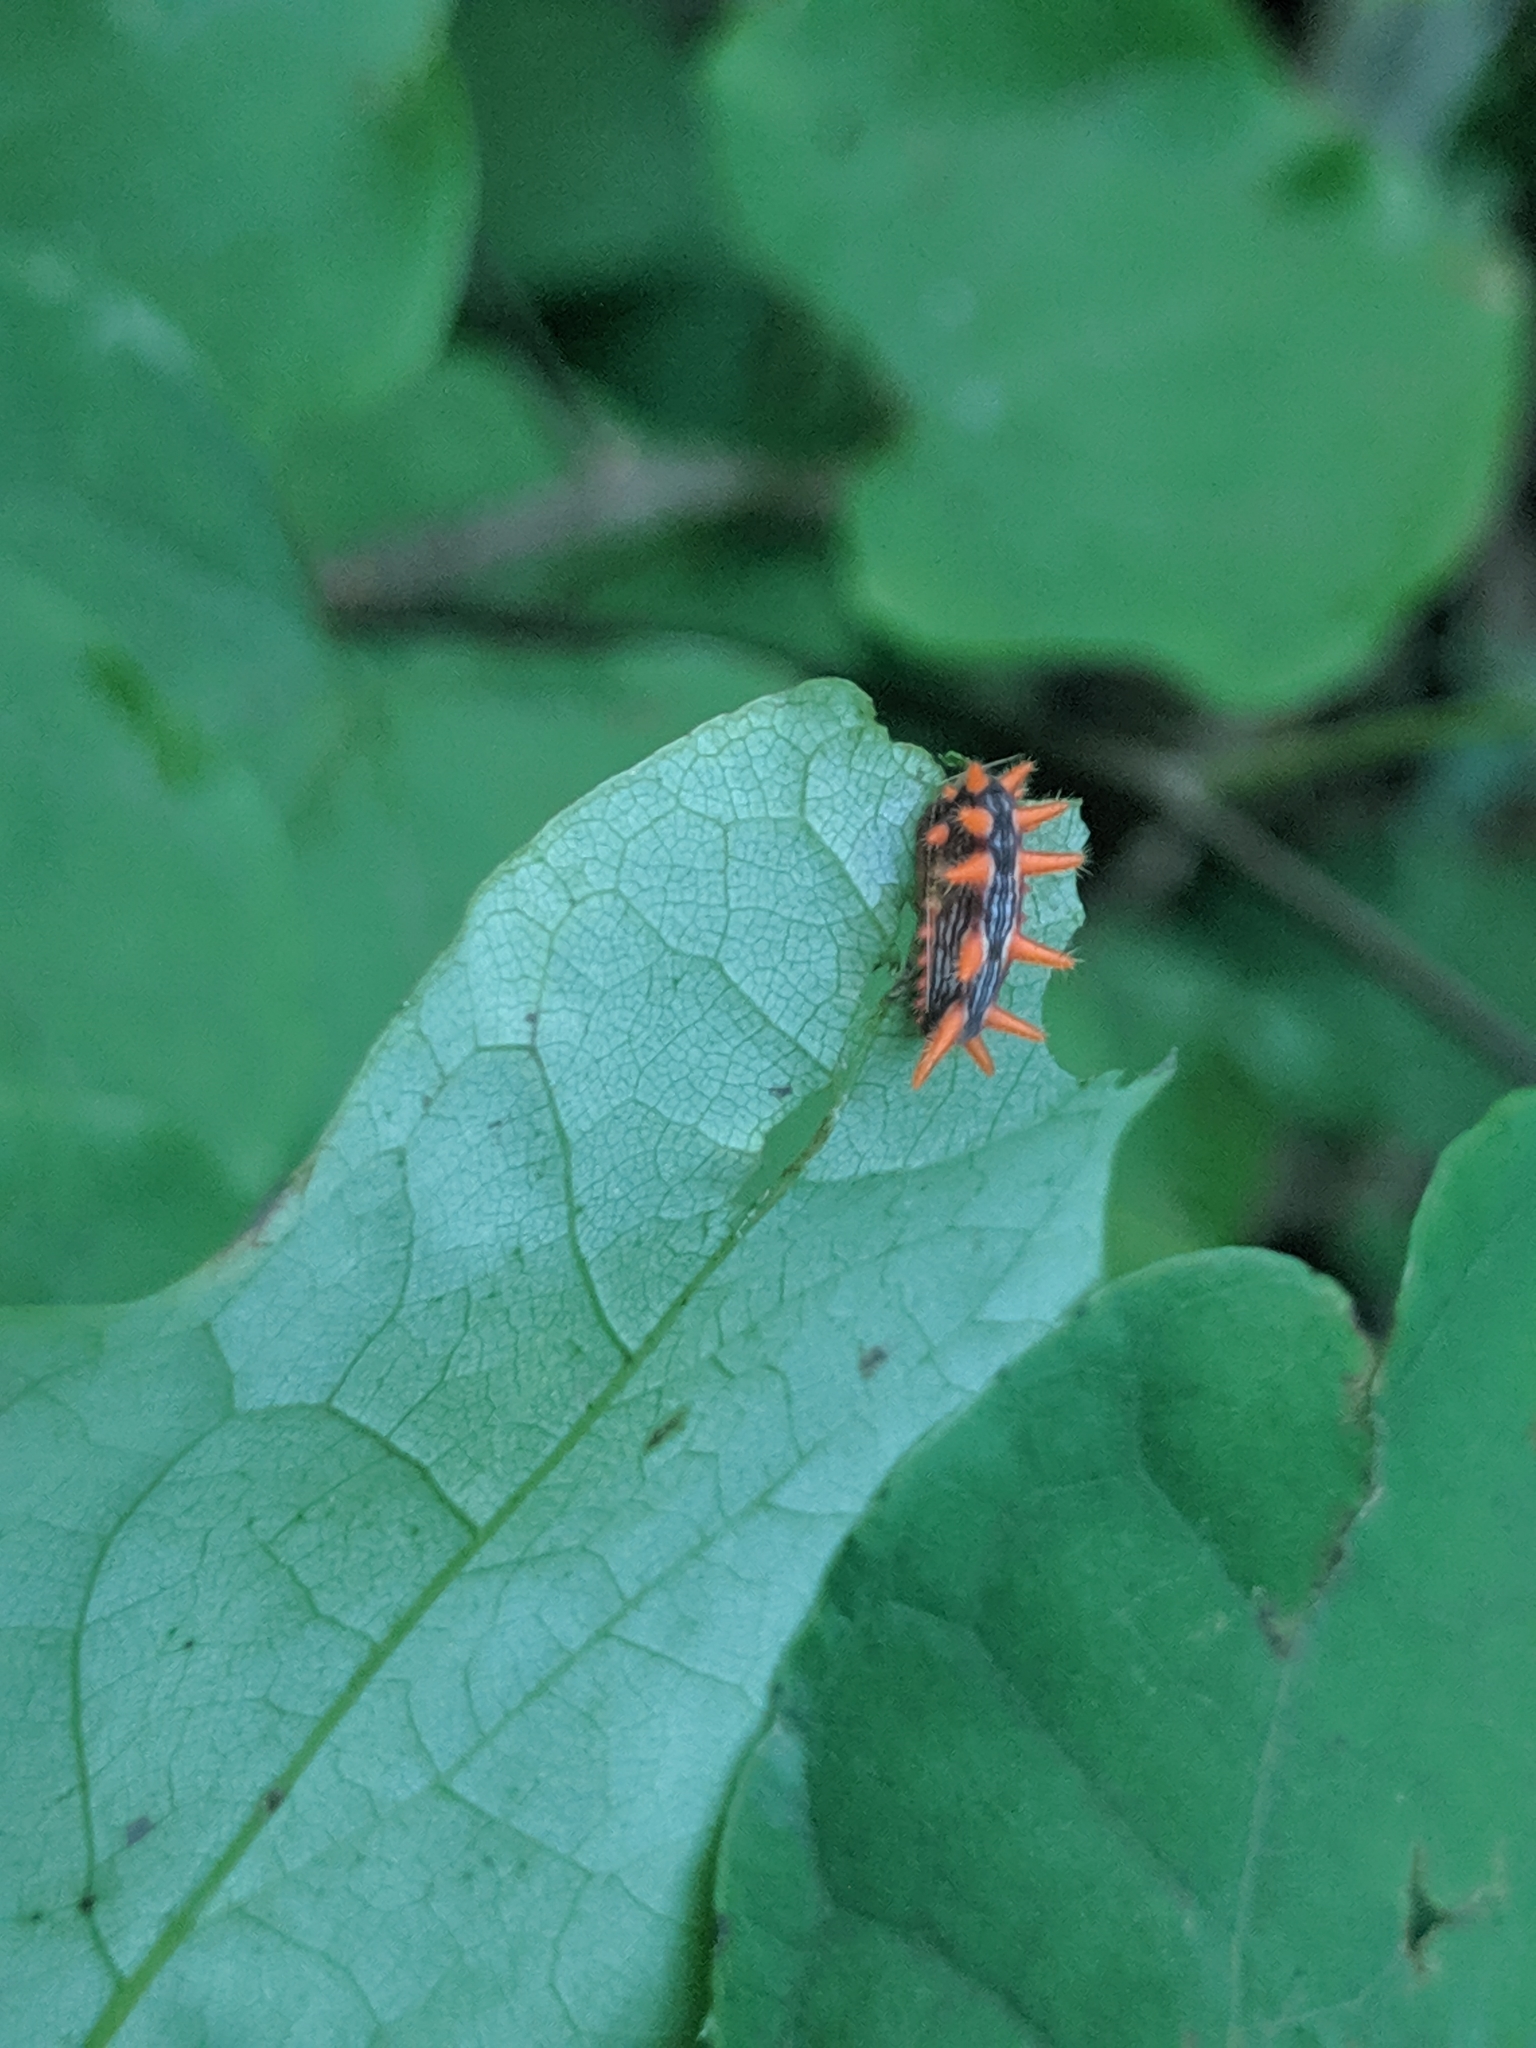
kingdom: Animalia
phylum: Arthropoda
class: Insecta
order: Lepidoptera
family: Limacodidae
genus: Parasa
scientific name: Parasa indetermina
